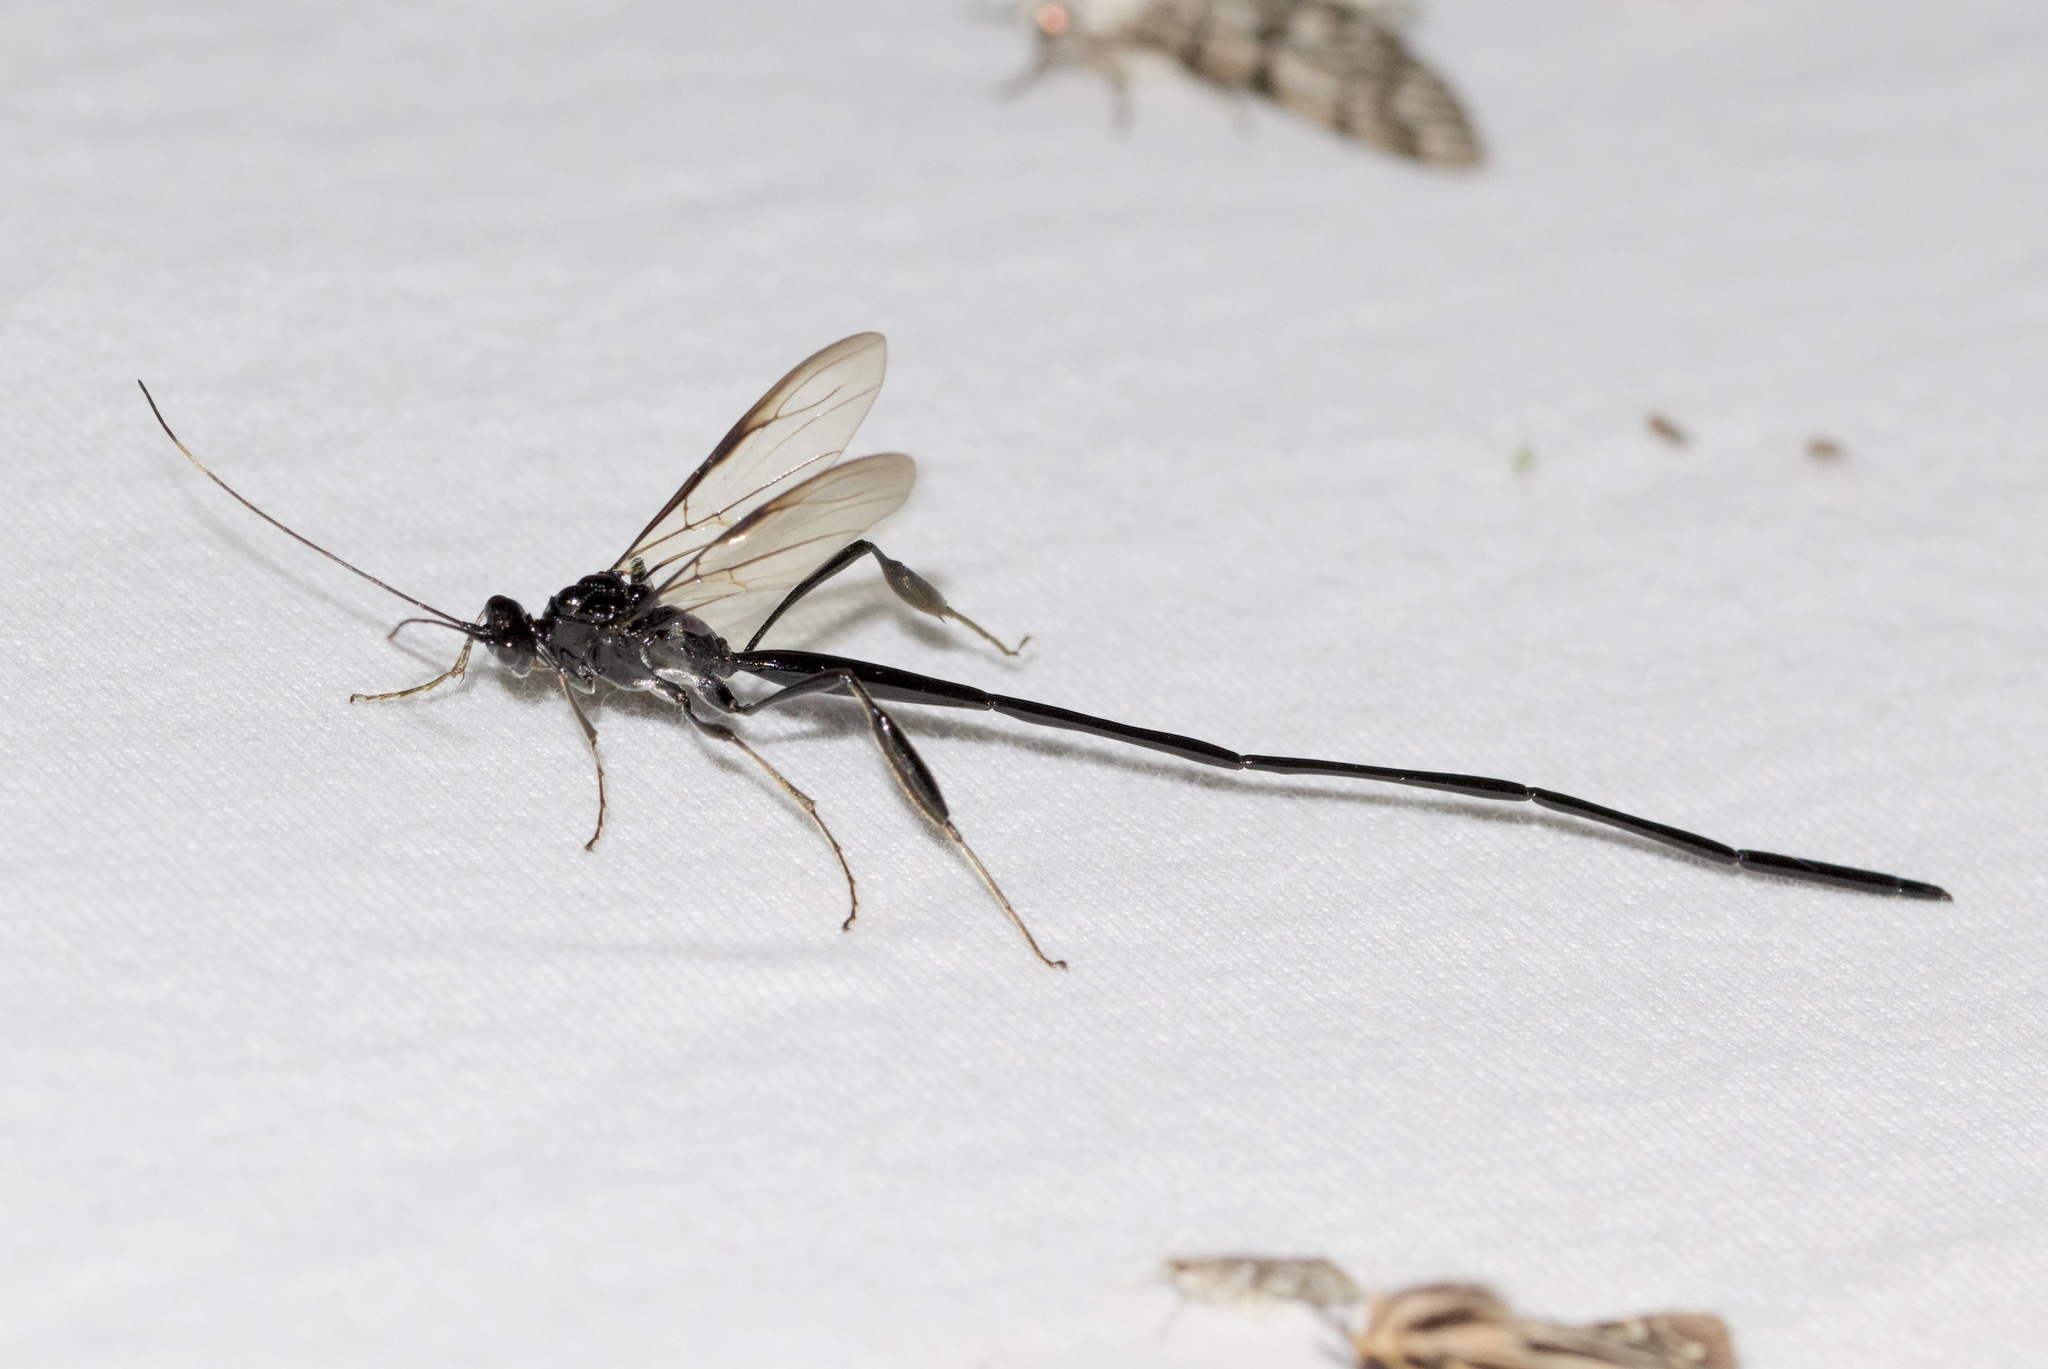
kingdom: Animalia
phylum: Arthropoda
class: Insecta
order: Hymenoptera
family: Pelecinidae
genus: Pelecinus
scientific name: Pelecinus polyturator
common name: American pelecinid wasp
